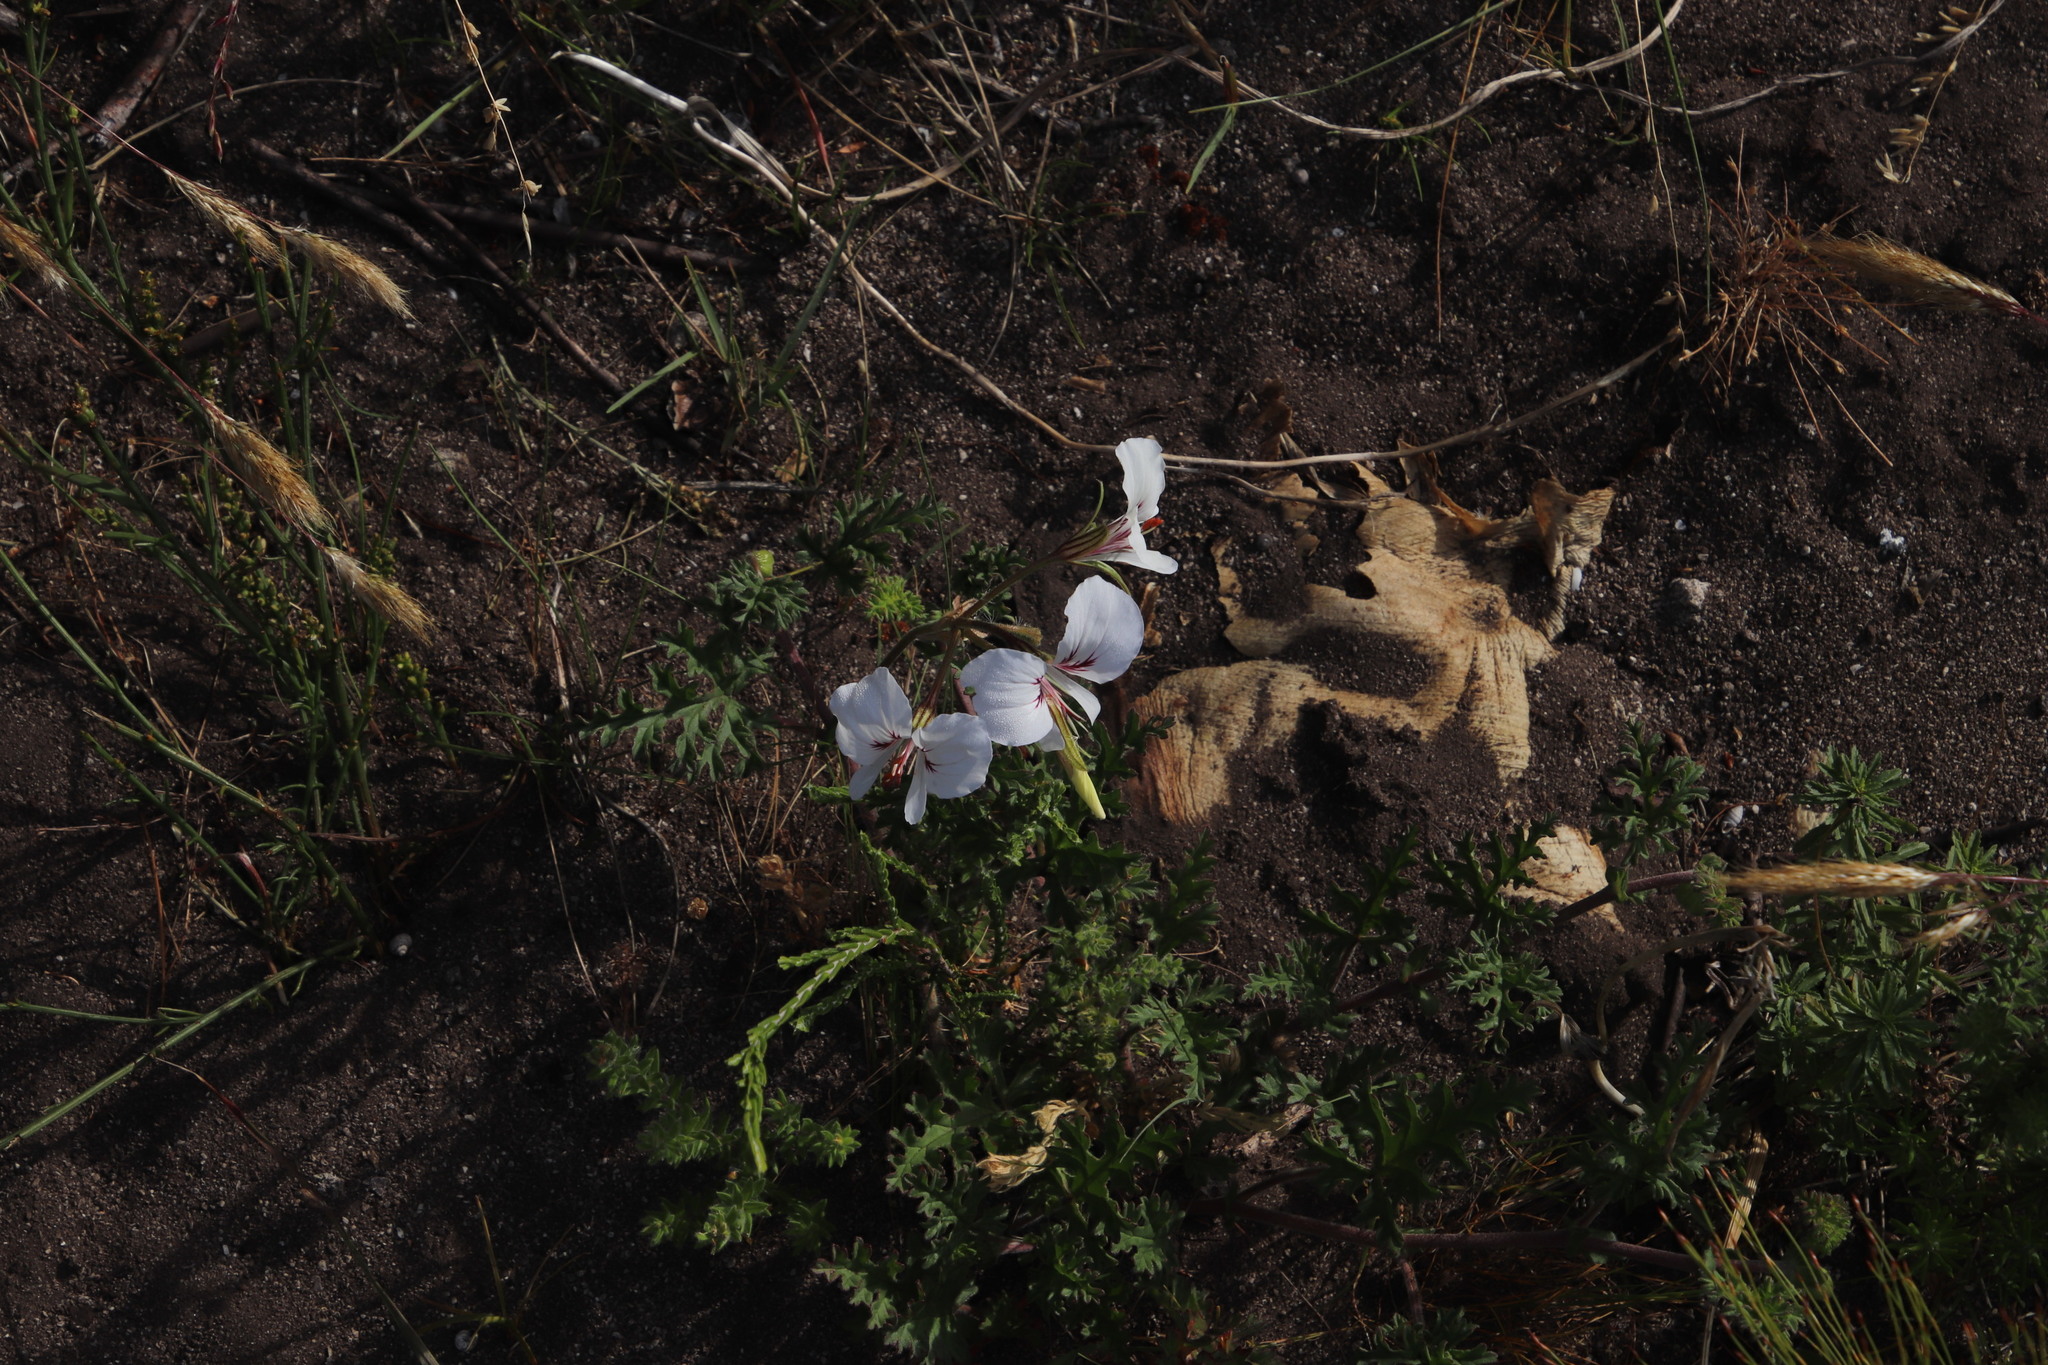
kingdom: Plantae
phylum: Tracheophyta
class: Magnoliopsida
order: Geraniales
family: Geraniaceae
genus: Pelargonium
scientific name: Pelargonium longicaule
